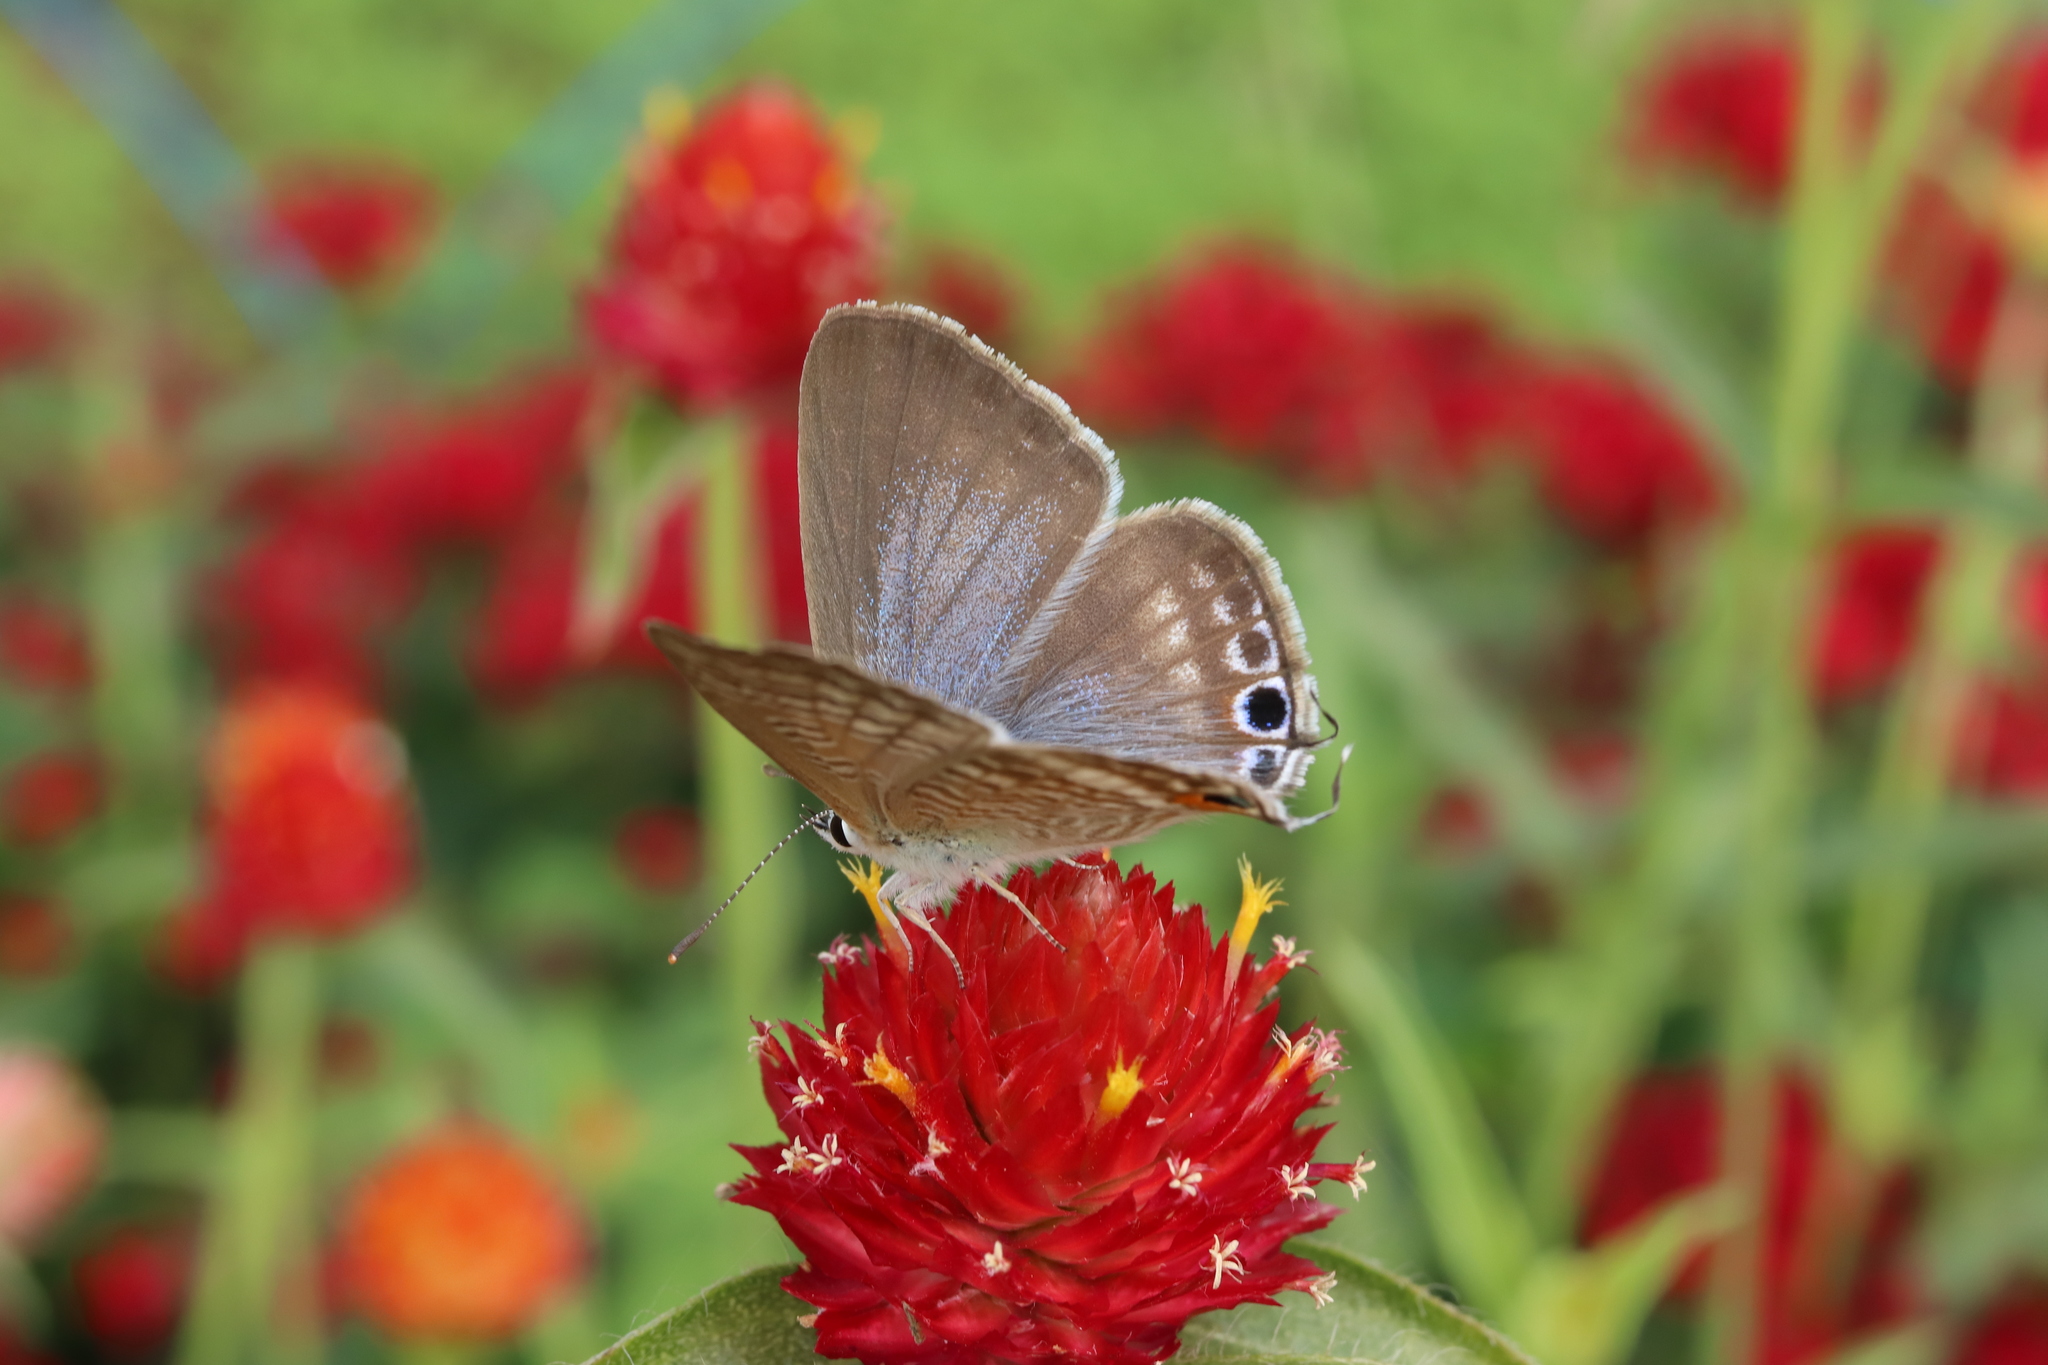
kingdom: Animalia
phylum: Arthropoda
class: Insecta
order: Lepidoptera
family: Lycaenidae
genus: Lampides
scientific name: Lampides boeticus
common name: Long-tailed blue
